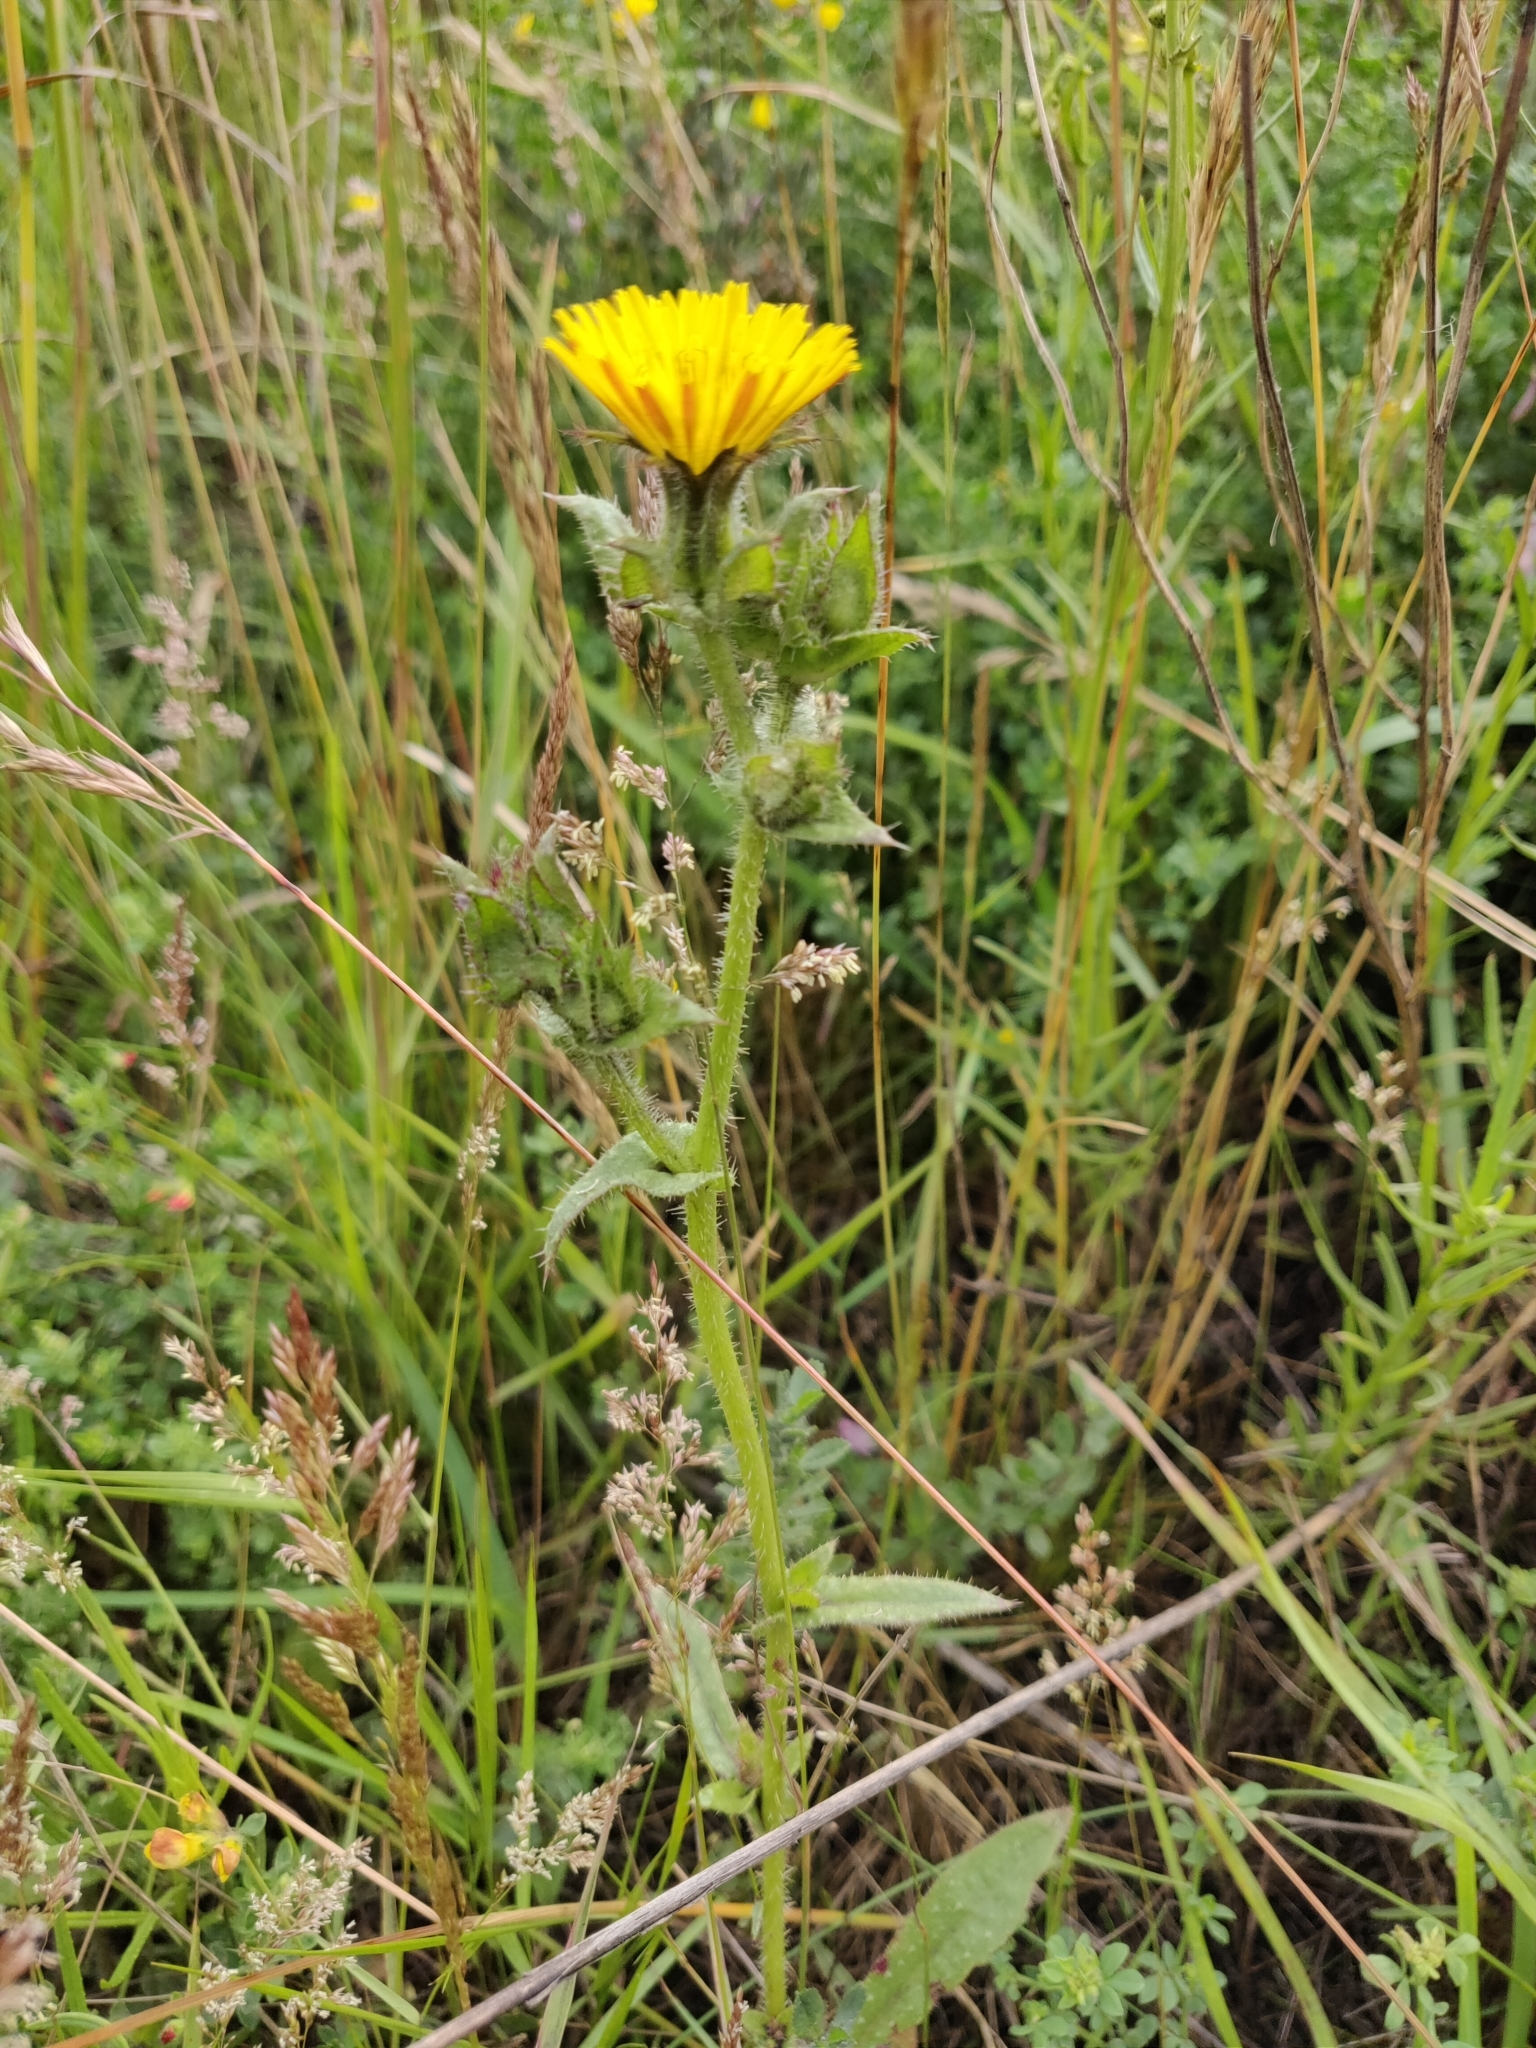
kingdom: Plantae
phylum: Tracheophyta
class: Magnoliopsida
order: Asterales
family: Asteraceae
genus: Helminthotheca
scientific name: Helminthotheca echioides
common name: Ox-tongue
